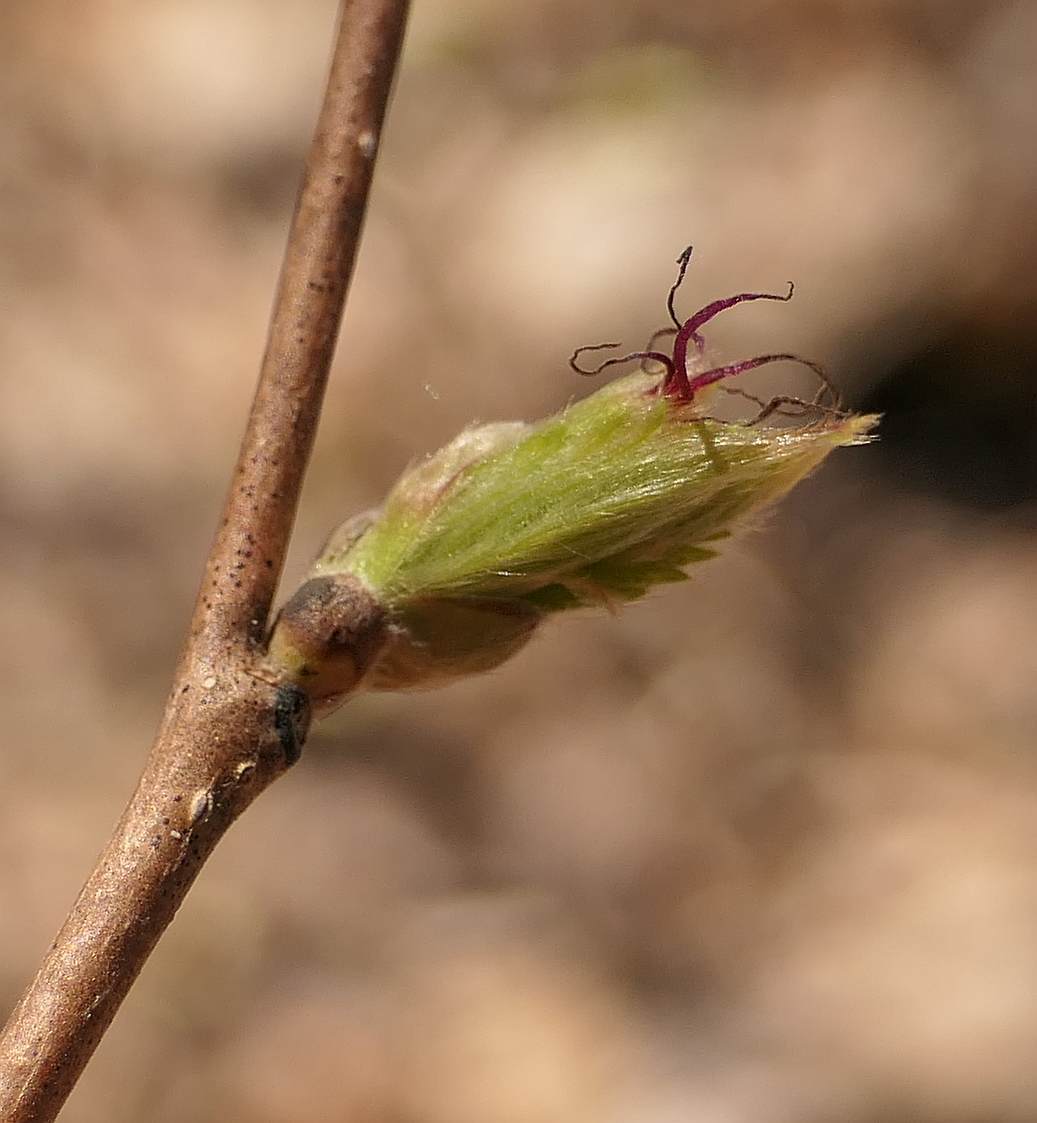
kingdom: Plantae
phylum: Tracheophyta
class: Magnoliopsida
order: Fagales
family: Betulaceae
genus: Corylus
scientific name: Corylus cornuta
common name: Beaked hazel
